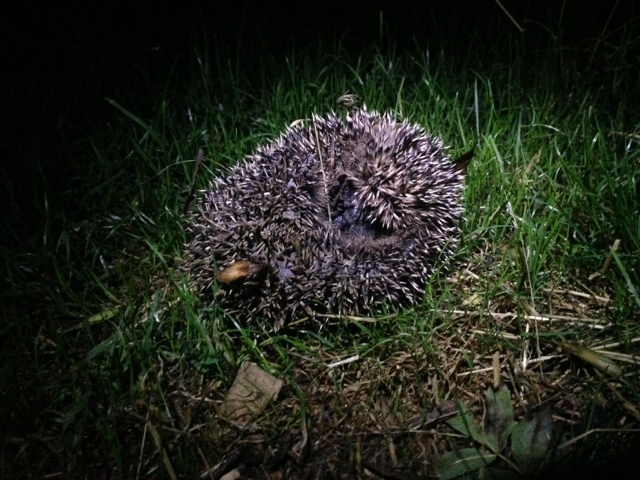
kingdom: Animalia
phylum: Chordata
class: Mammalia
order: Erinaceomorpha
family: Erinaceidae
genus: Erinaceus
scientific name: Erinaceus europaeus
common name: West european hedgehog
